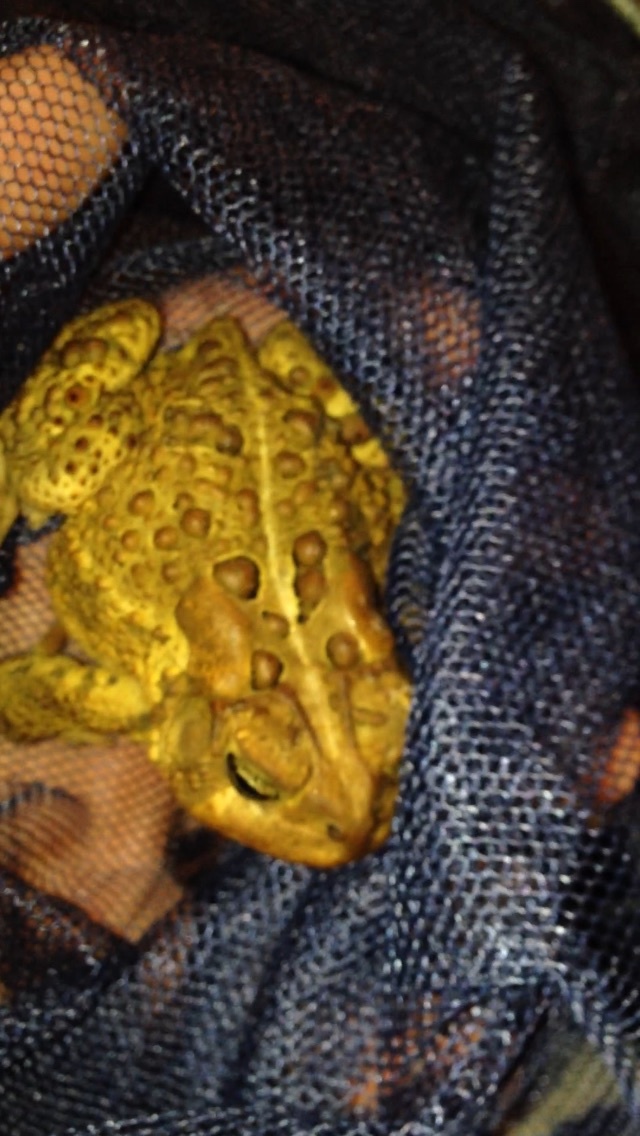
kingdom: Animalia
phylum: Chordata
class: Amphibia
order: Anura
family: Bufonidae
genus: Anaxyrus
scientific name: Anaxyrus americanus
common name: American toad
